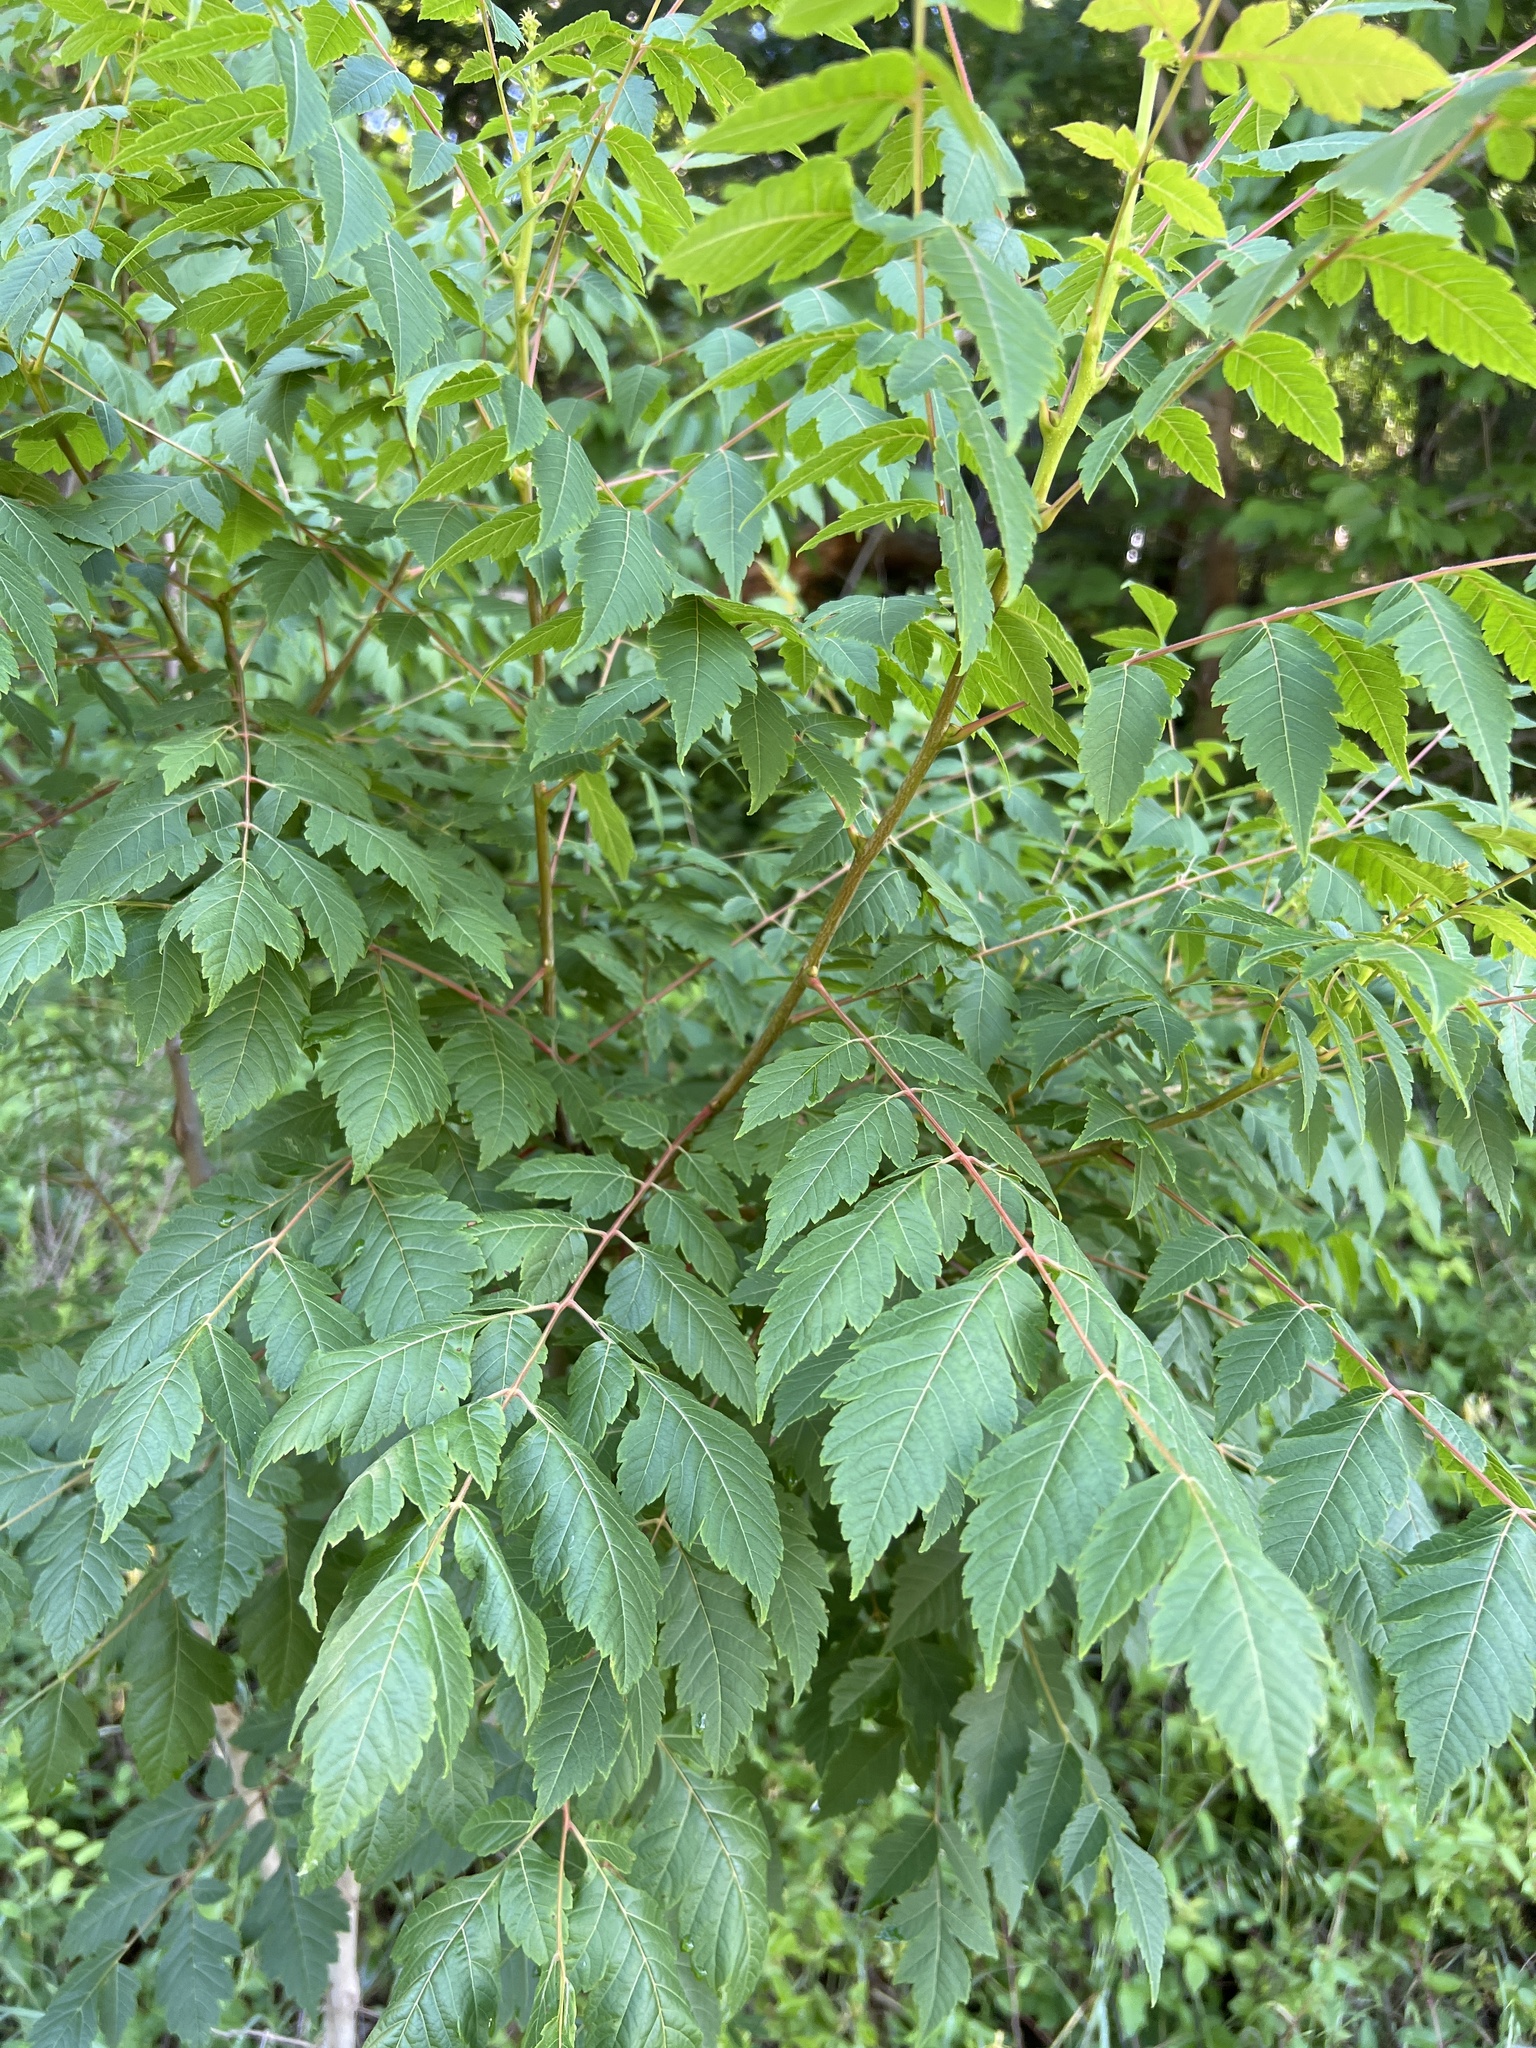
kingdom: Plantae
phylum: Tracheophyta
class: Magnoliopsida
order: Sapindales
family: Sapindaceae
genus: Koelreuteria
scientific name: Koelreuteria paniculata
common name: Pride-of-india
